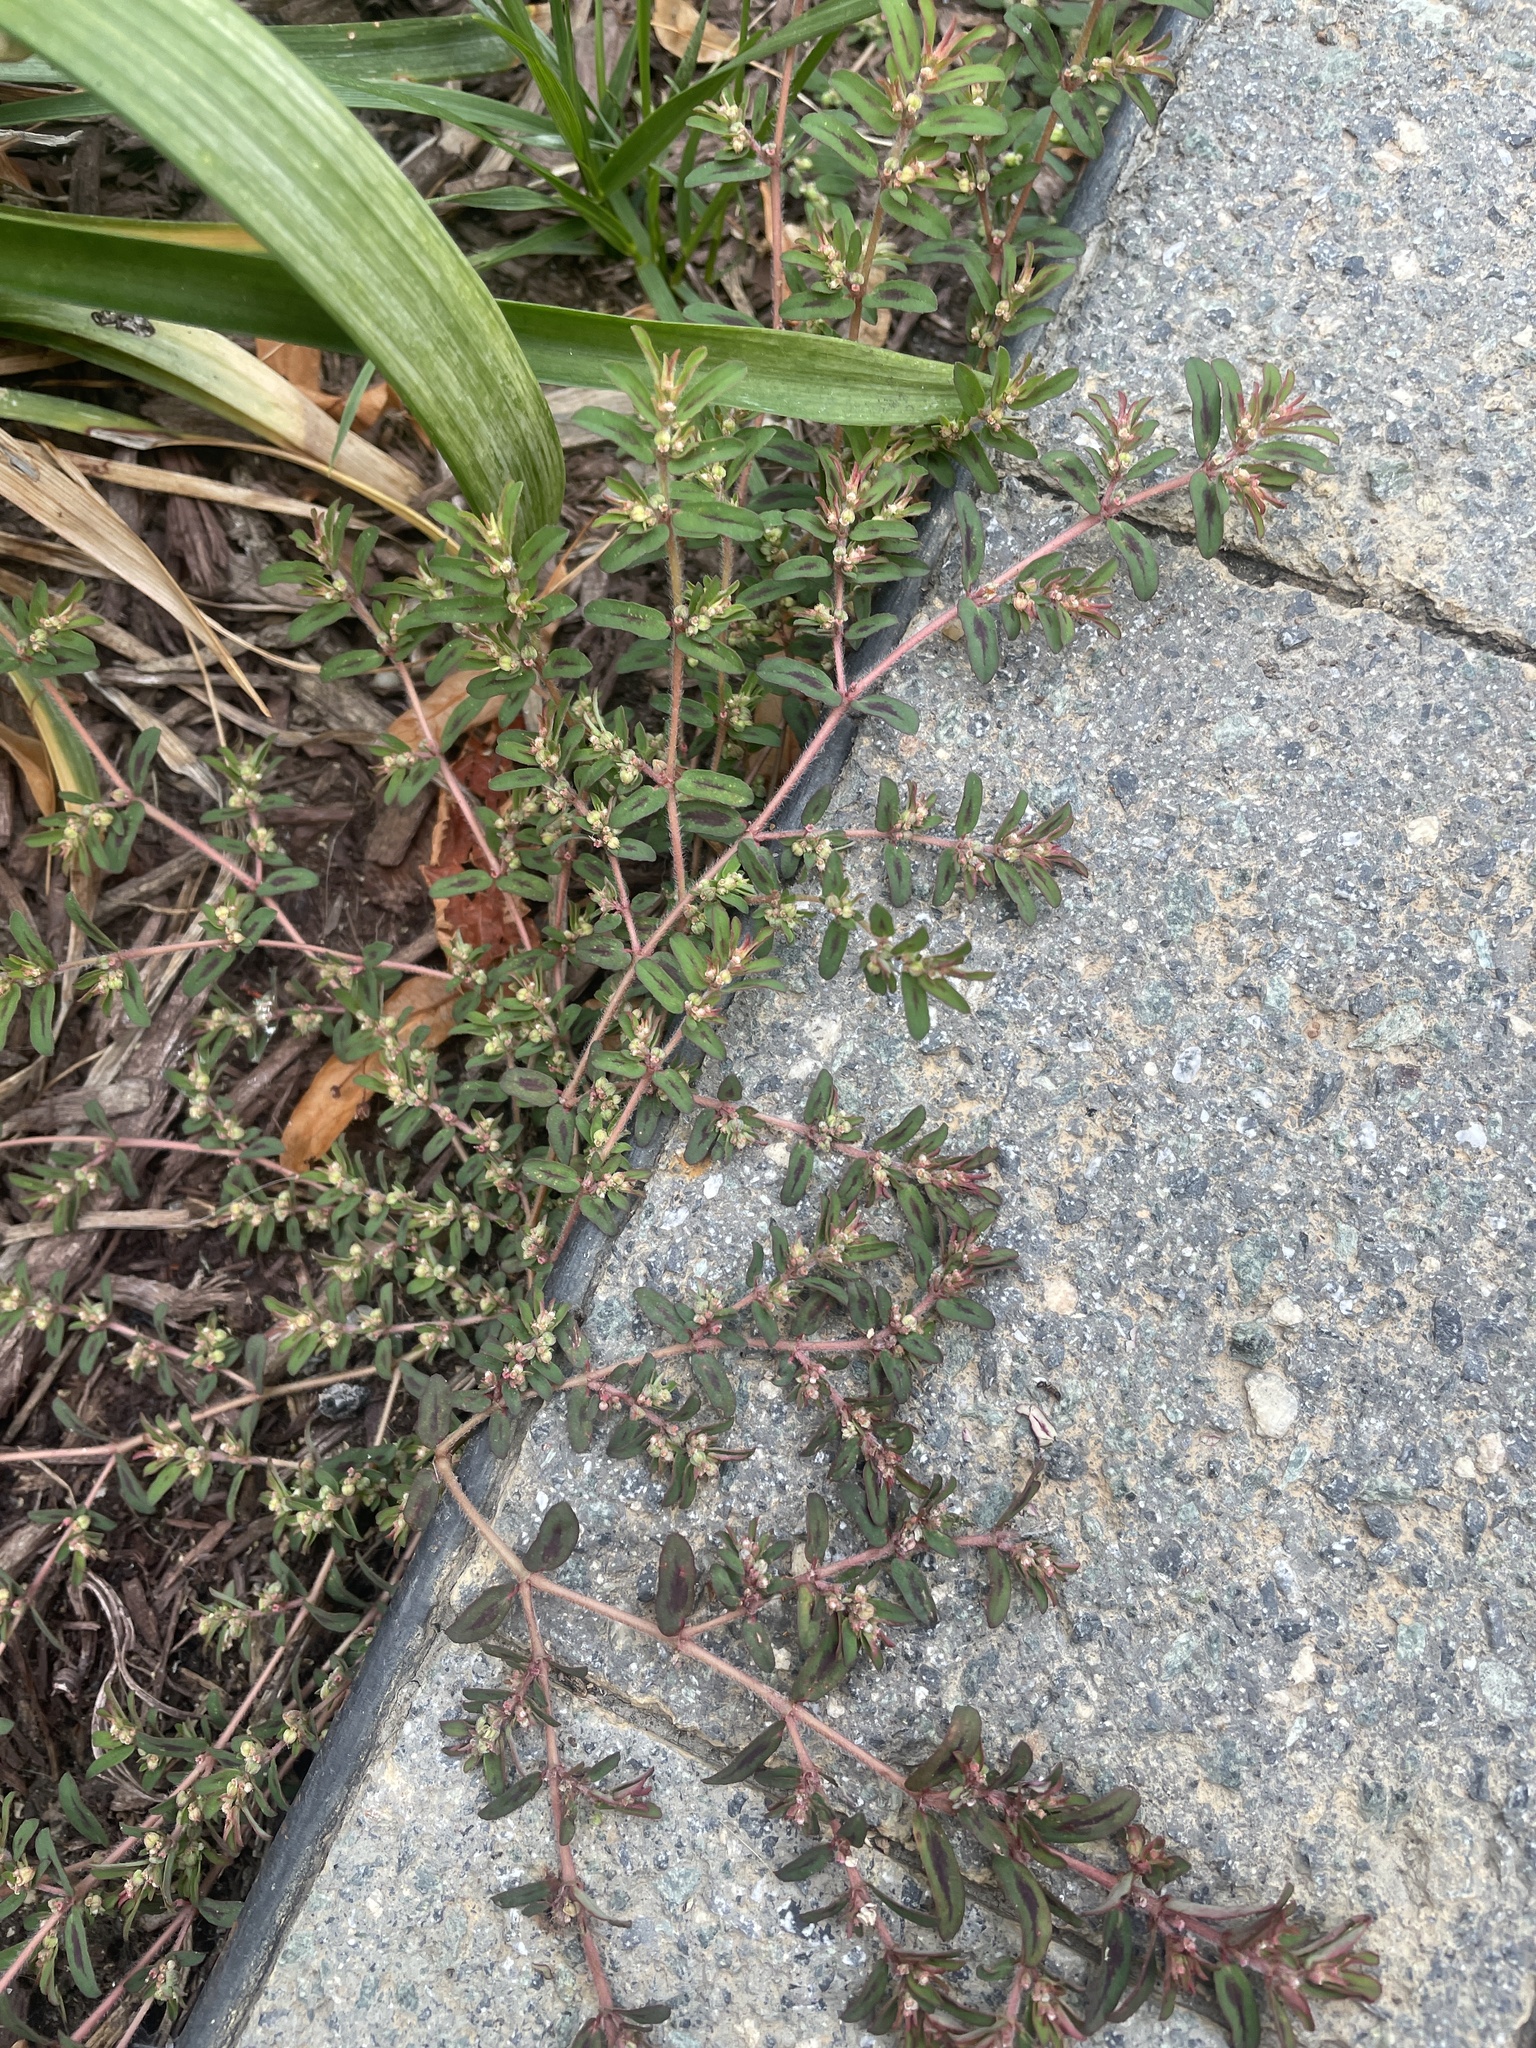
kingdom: Plantae
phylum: Tracheophyta
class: Magnoliopsida
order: Malpighiales
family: Euphorbiaceae
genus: Euphorbia
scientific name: Euphorbia maculata
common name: Spotted spurge
